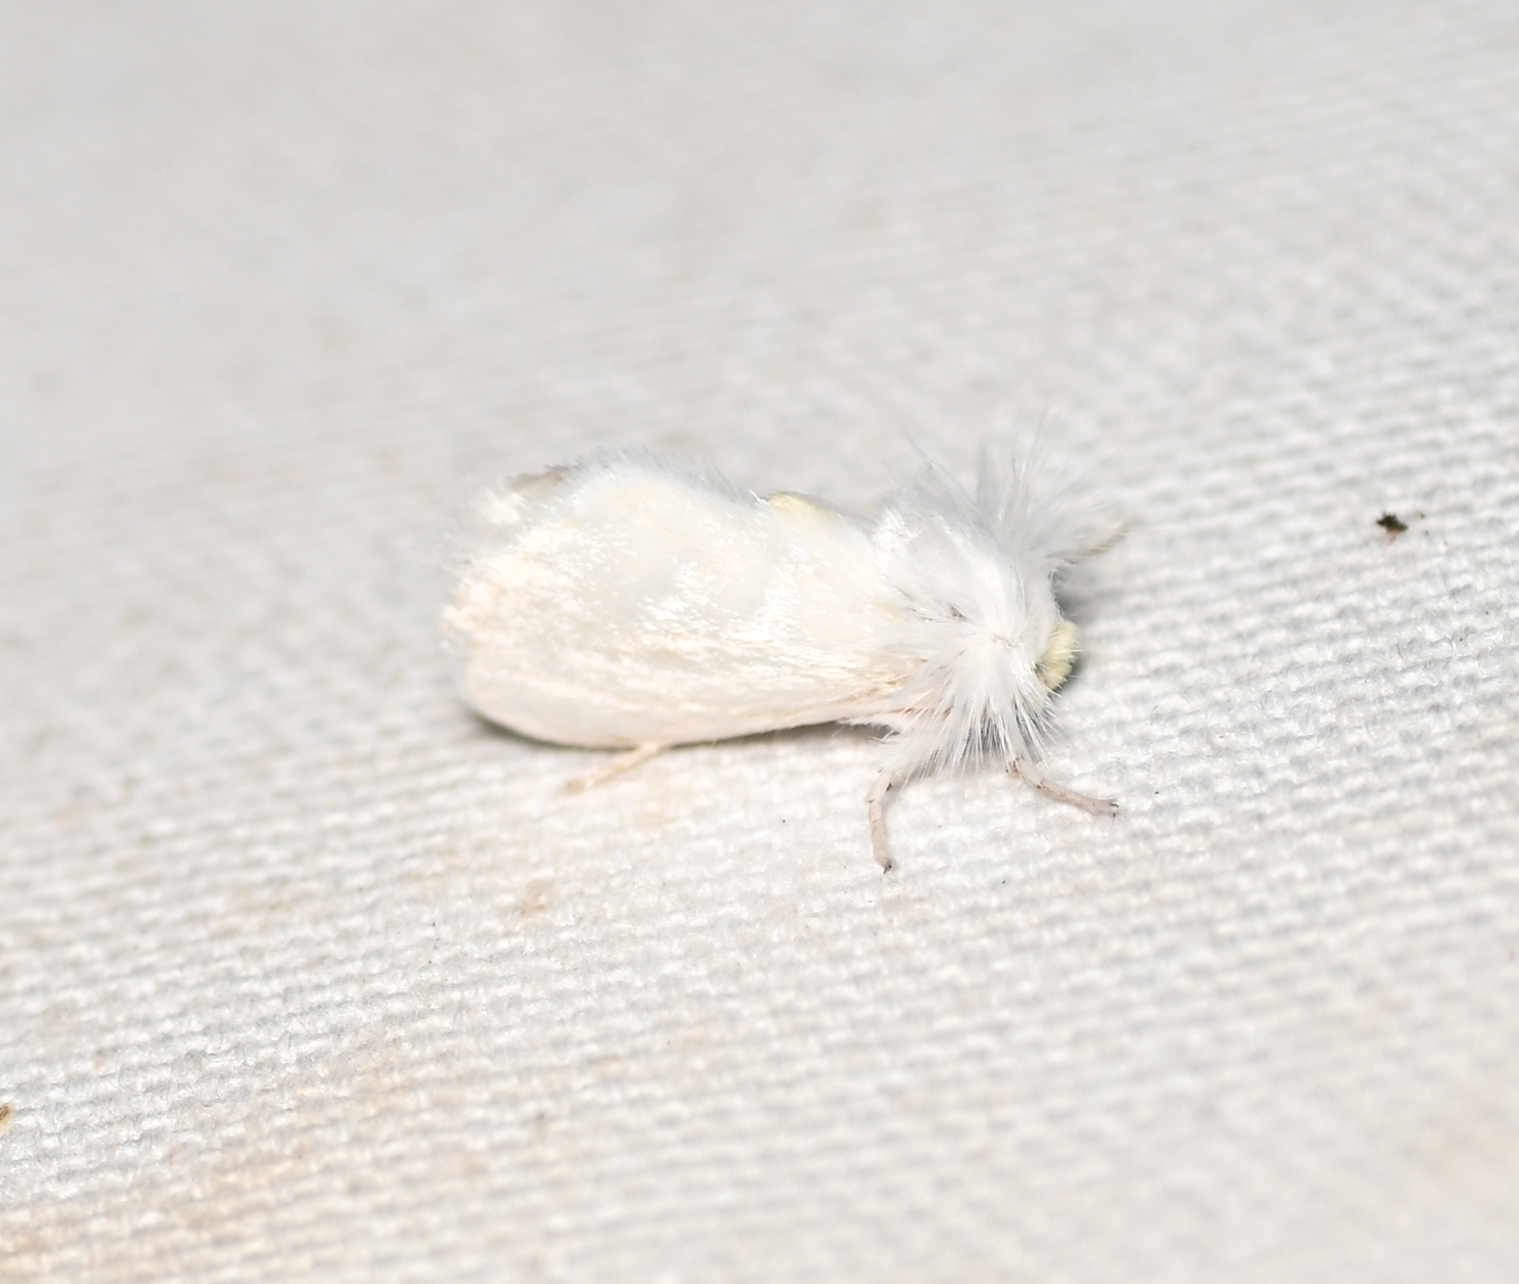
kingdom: Animalia
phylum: Arthropoda
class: Insecta
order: Lepidoptera
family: Megalopygidae
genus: Norape
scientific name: Norape cretata
